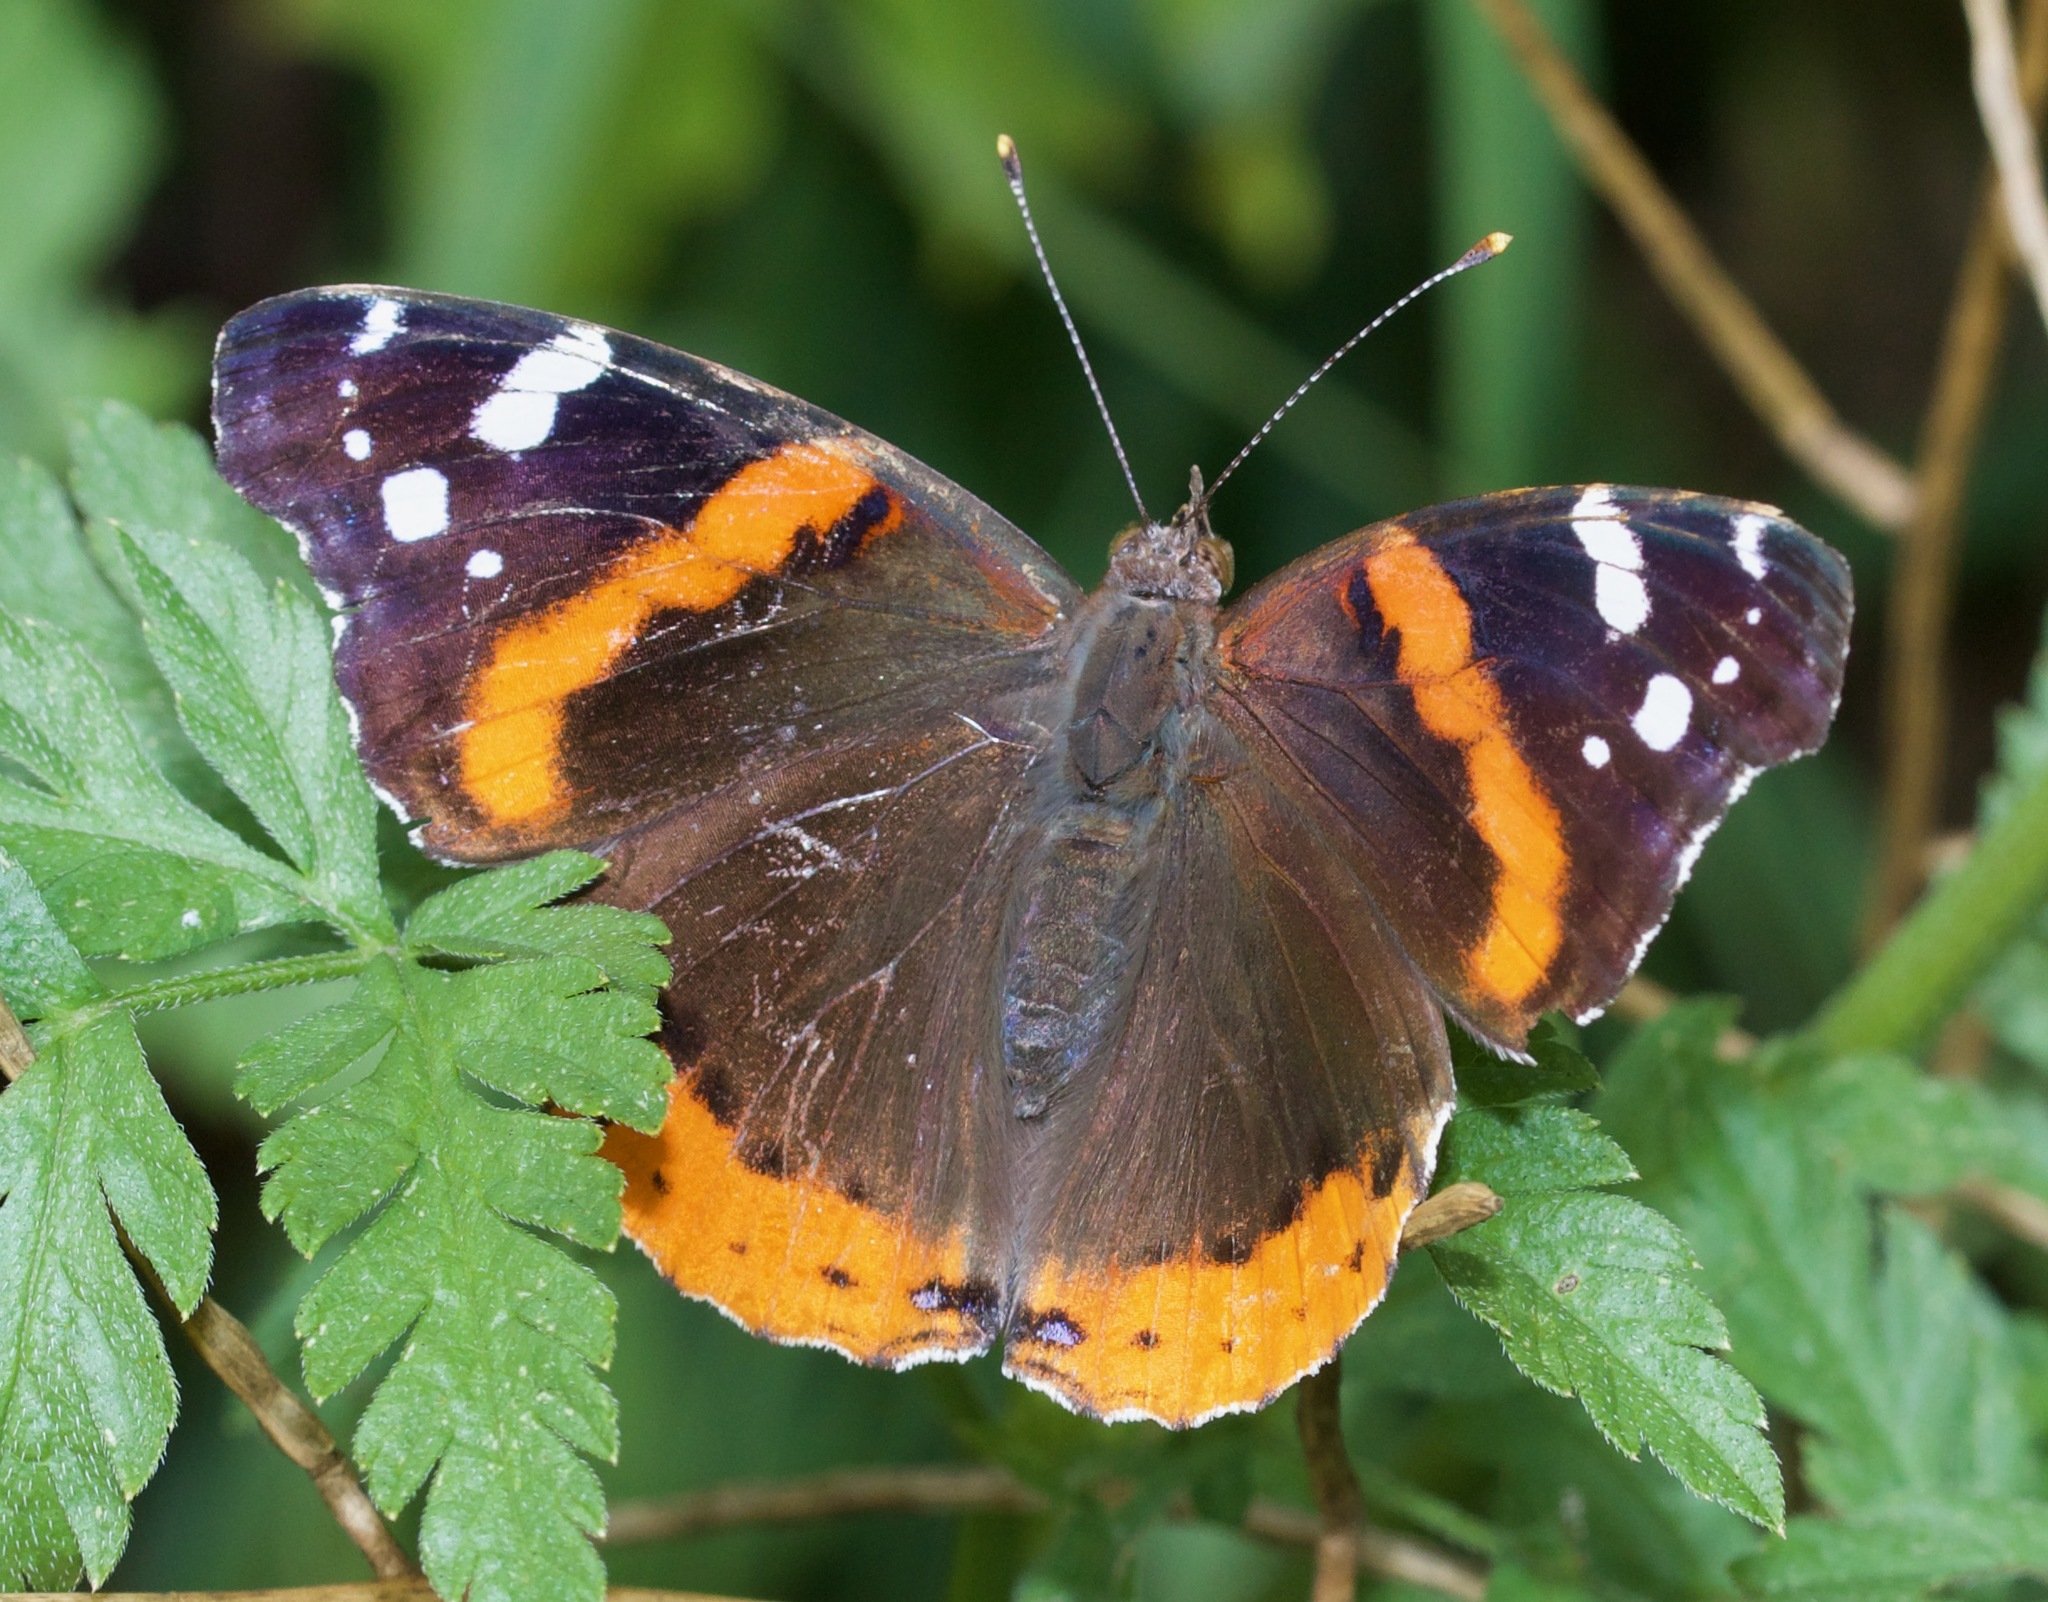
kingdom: Animalia
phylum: Arthropoda
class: Insecta
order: Lepidoptera
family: Nymphalidae
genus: Vanessa
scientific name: Vanessa atalanta
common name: Red admiral
